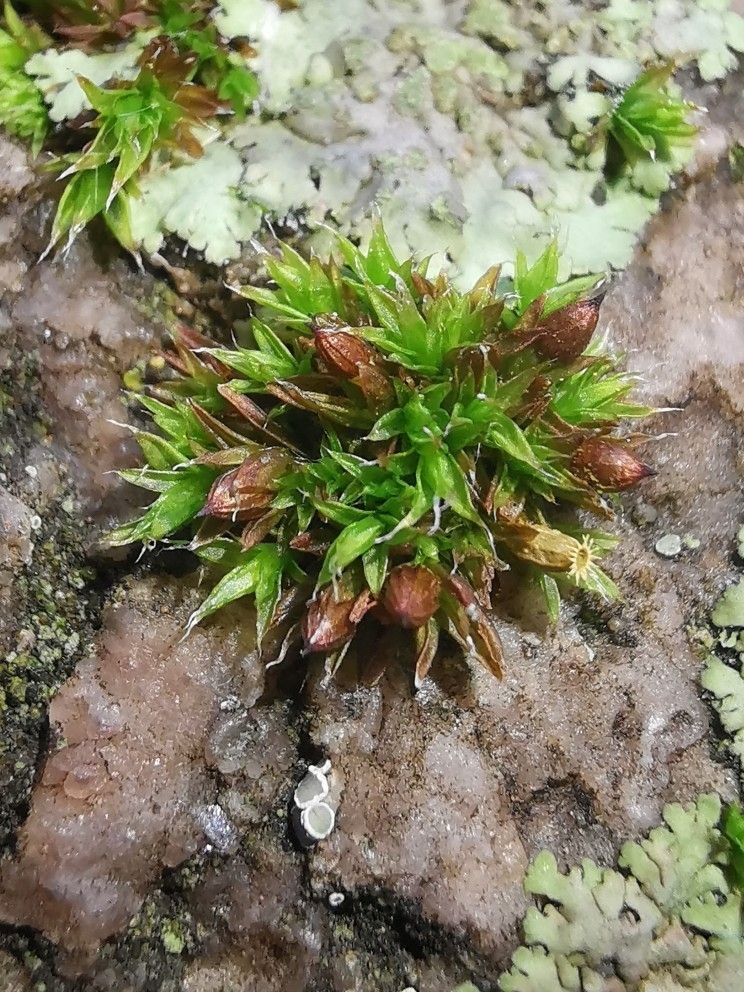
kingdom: Plantae
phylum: Bryophyta
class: Bryopsida
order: Orthotrichales
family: Orthotrichaceae
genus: Orthotrichum
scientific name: Orthotrichum diaphanum
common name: White-tipped bristle-moss
